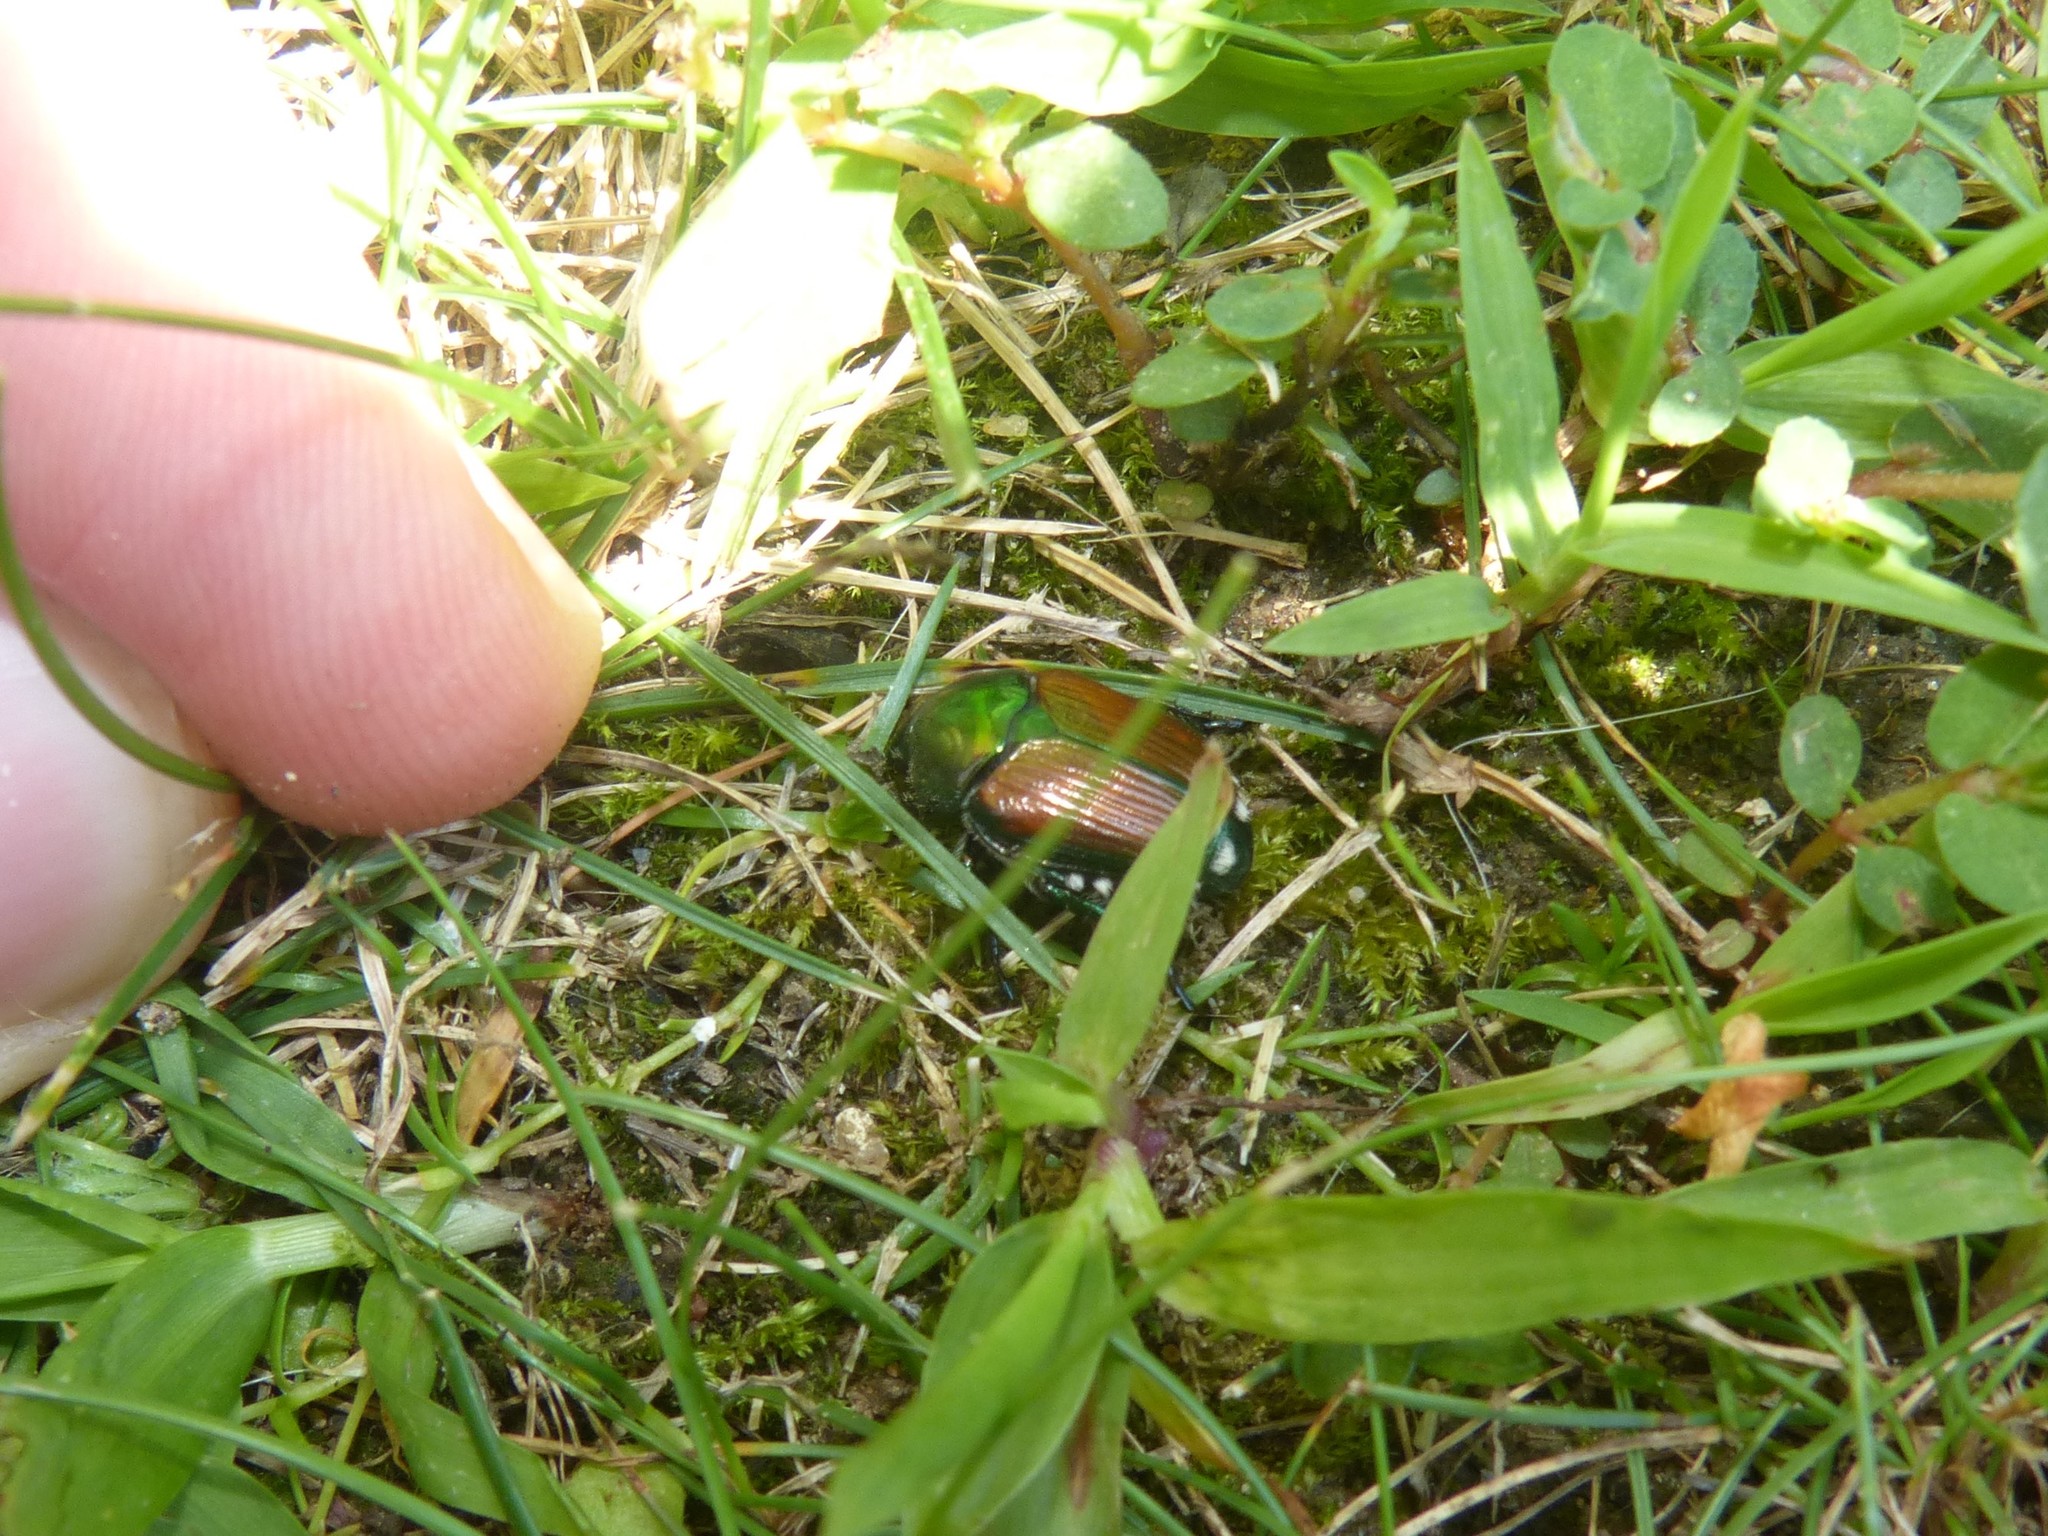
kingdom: Animalia
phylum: Arthropoda
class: Insecta
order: Coleoptera
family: Scarabaeidae
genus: Popillia
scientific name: Popillia japonica
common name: Japanese beetle
